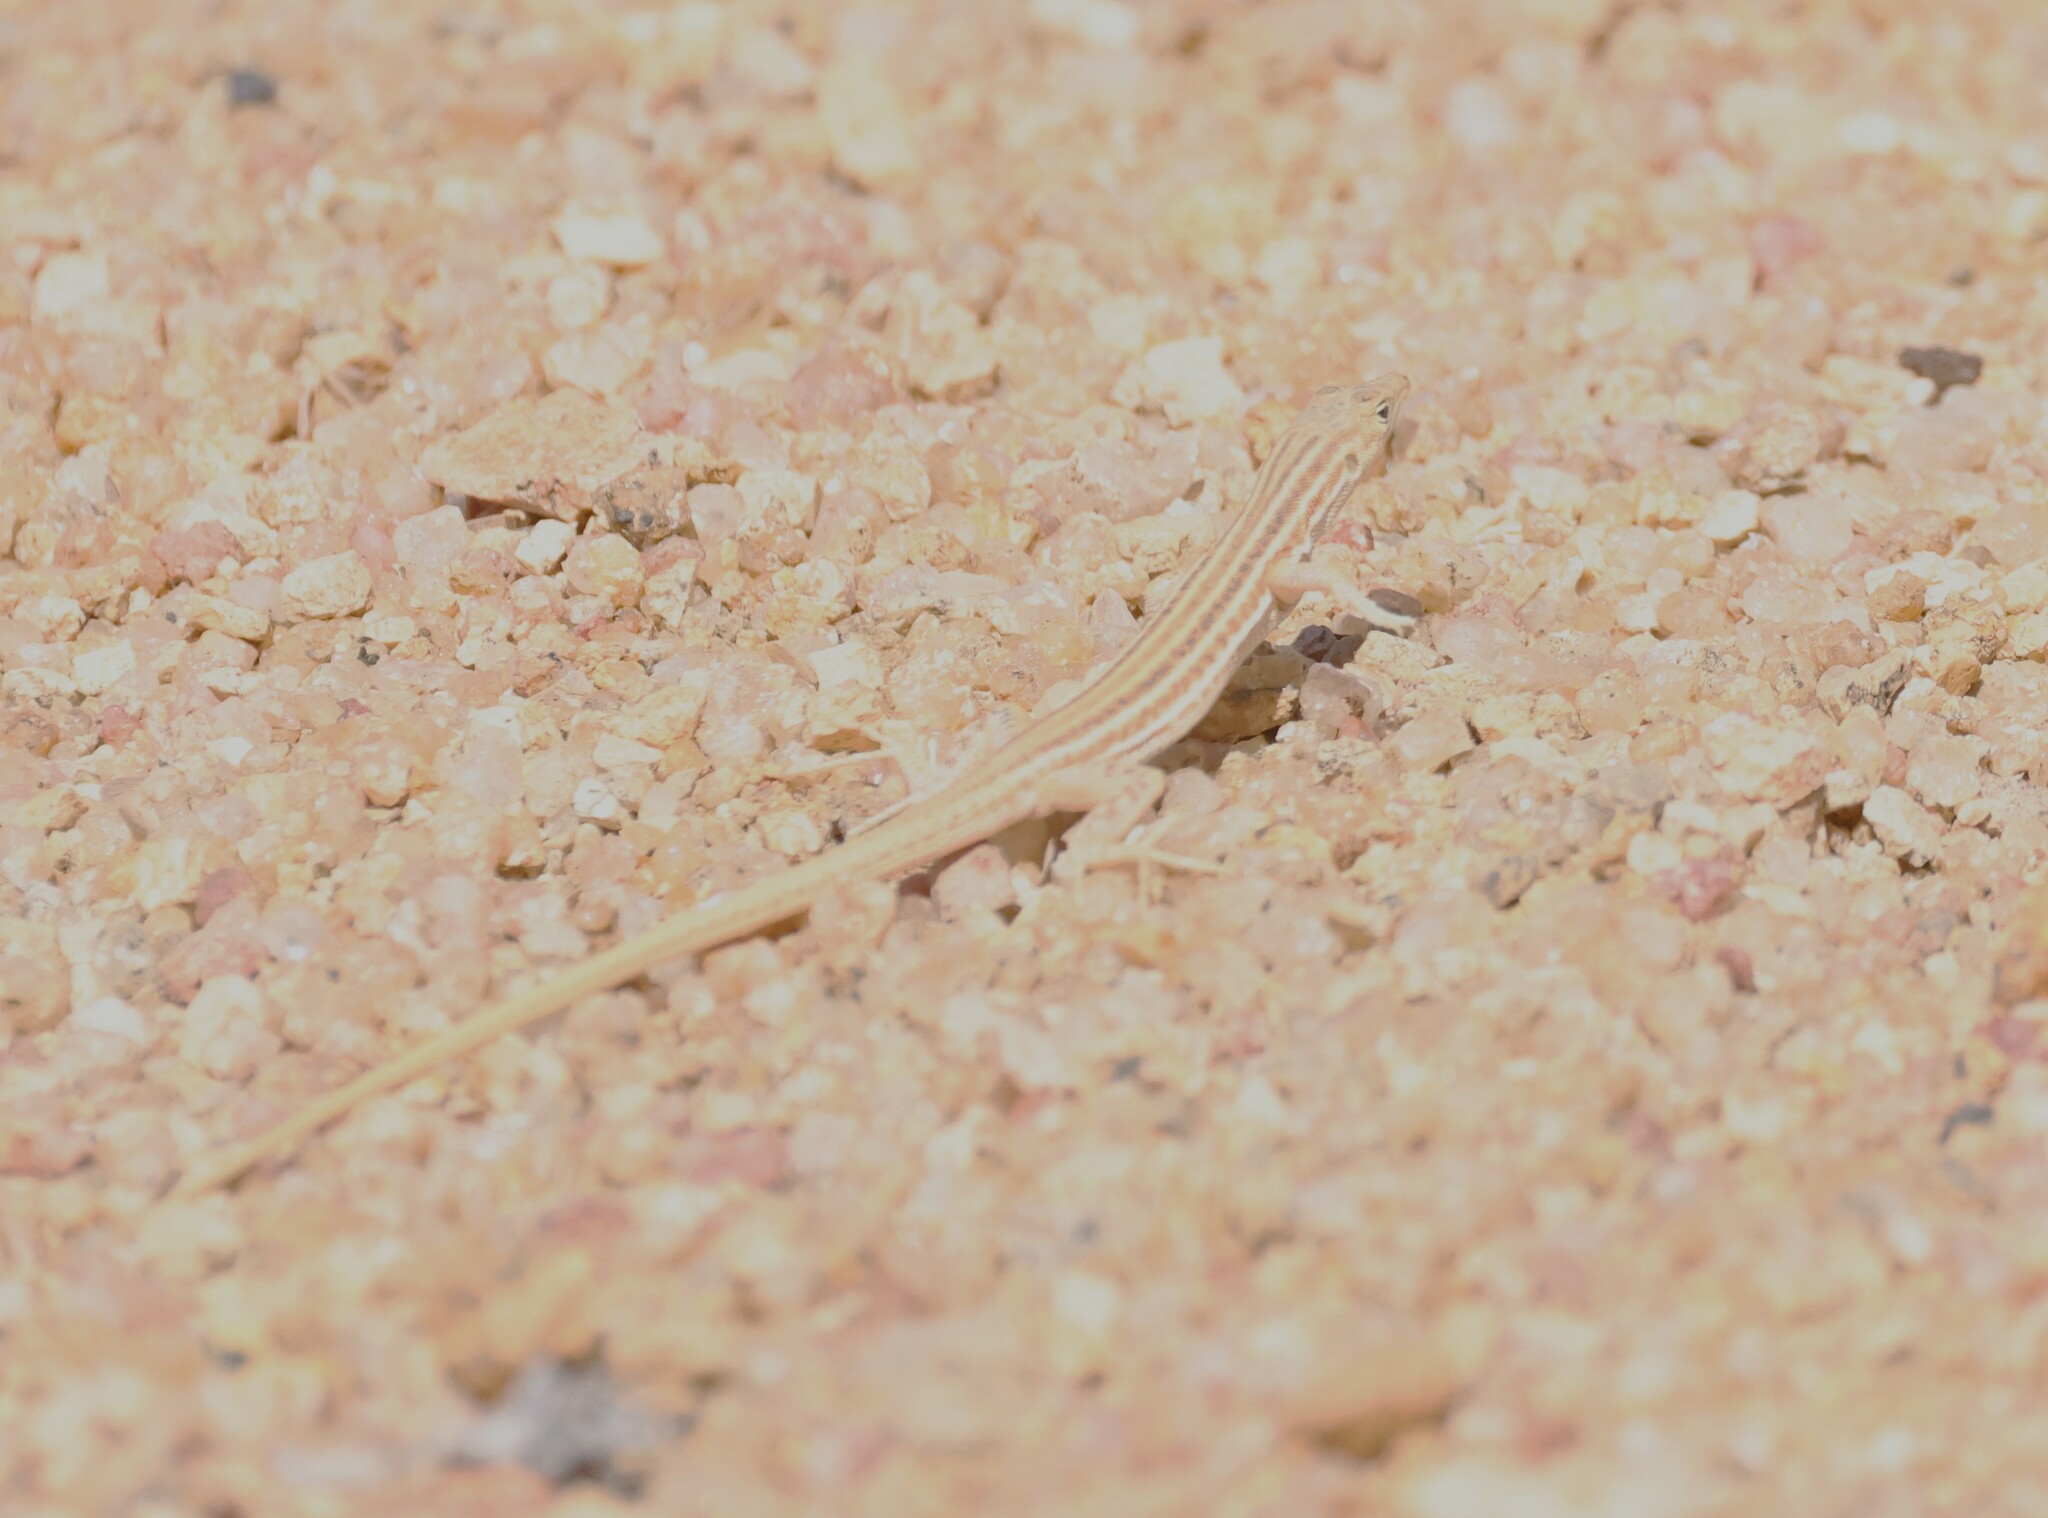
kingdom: Animalia
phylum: Chordata
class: Squamata
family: Lacertidae
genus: Pedioplanis
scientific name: Pedioplanis namaquensis
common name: Namaqua sand lizard
